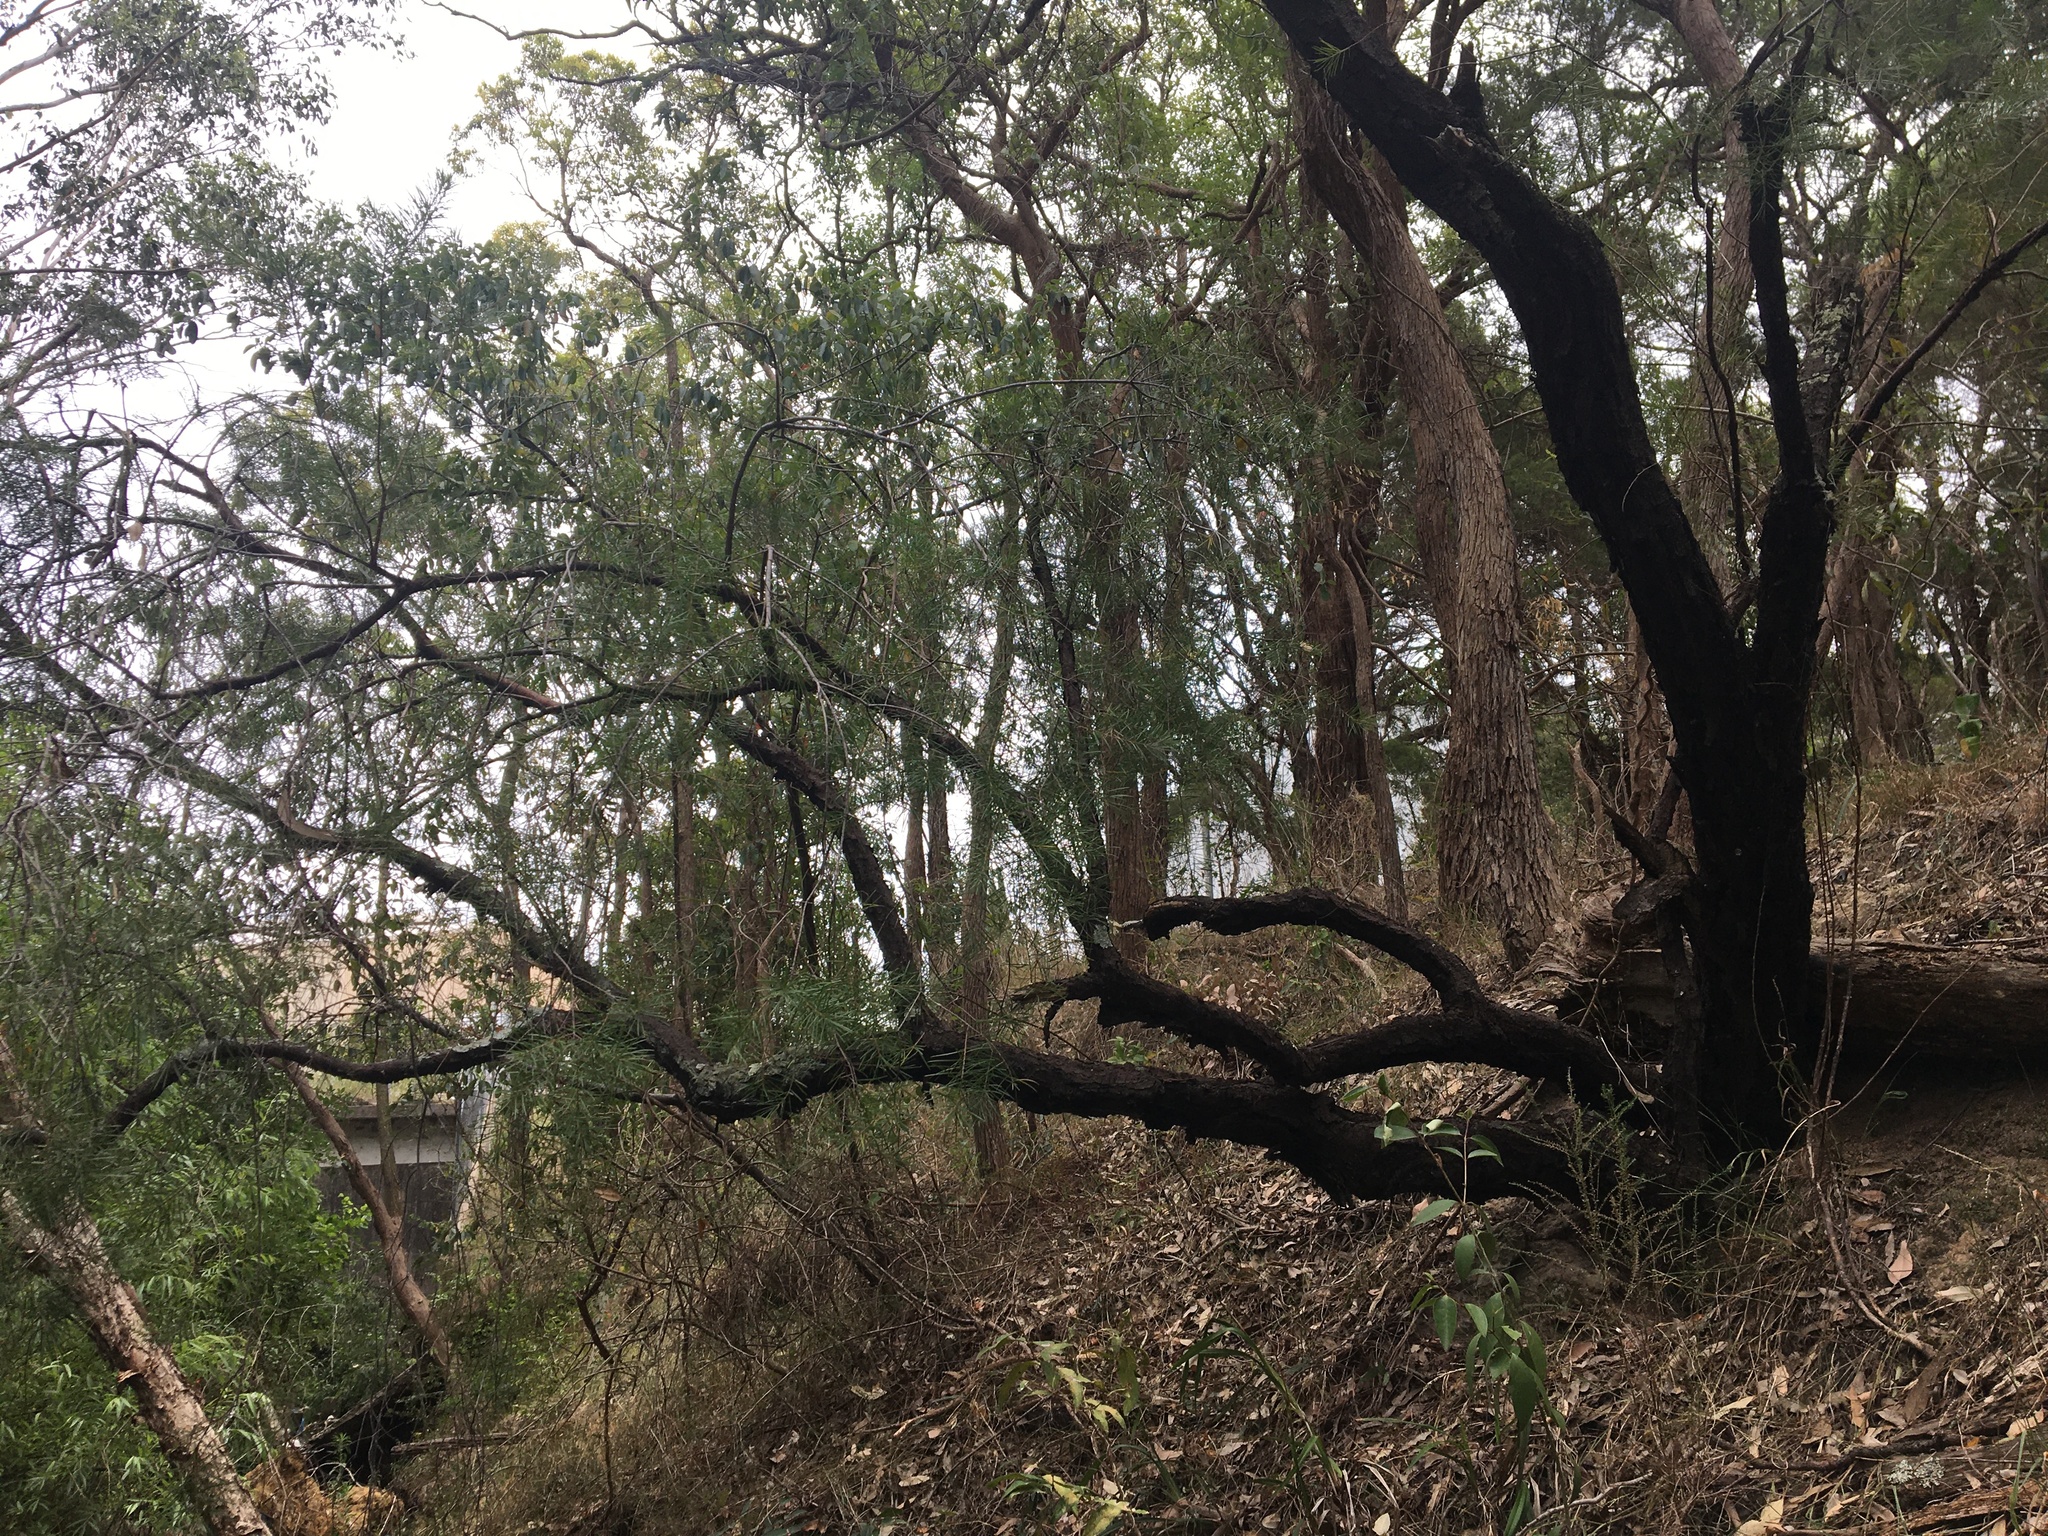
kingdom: Plantae
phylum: Tracheophyta
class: Magnoliopsida
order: Proteales
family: Proteaceae
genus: Persoonia
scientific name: Persoonia linearis
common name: Narrow-leaf geebung
